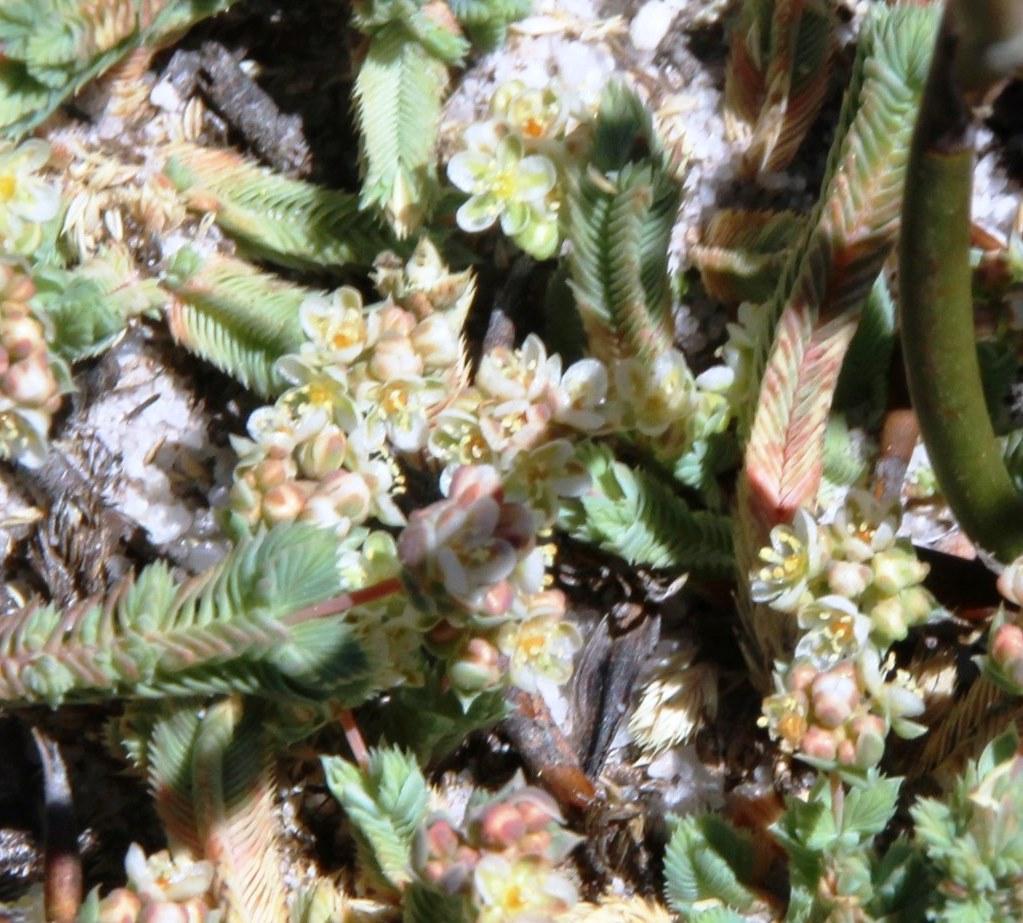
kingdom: Plantae
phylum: Tracheophyta
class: Magnoliopsida
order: Caryophyllales
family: Molluginaceae
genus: Psammotropha
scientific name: Psammotropha quadrangularis
